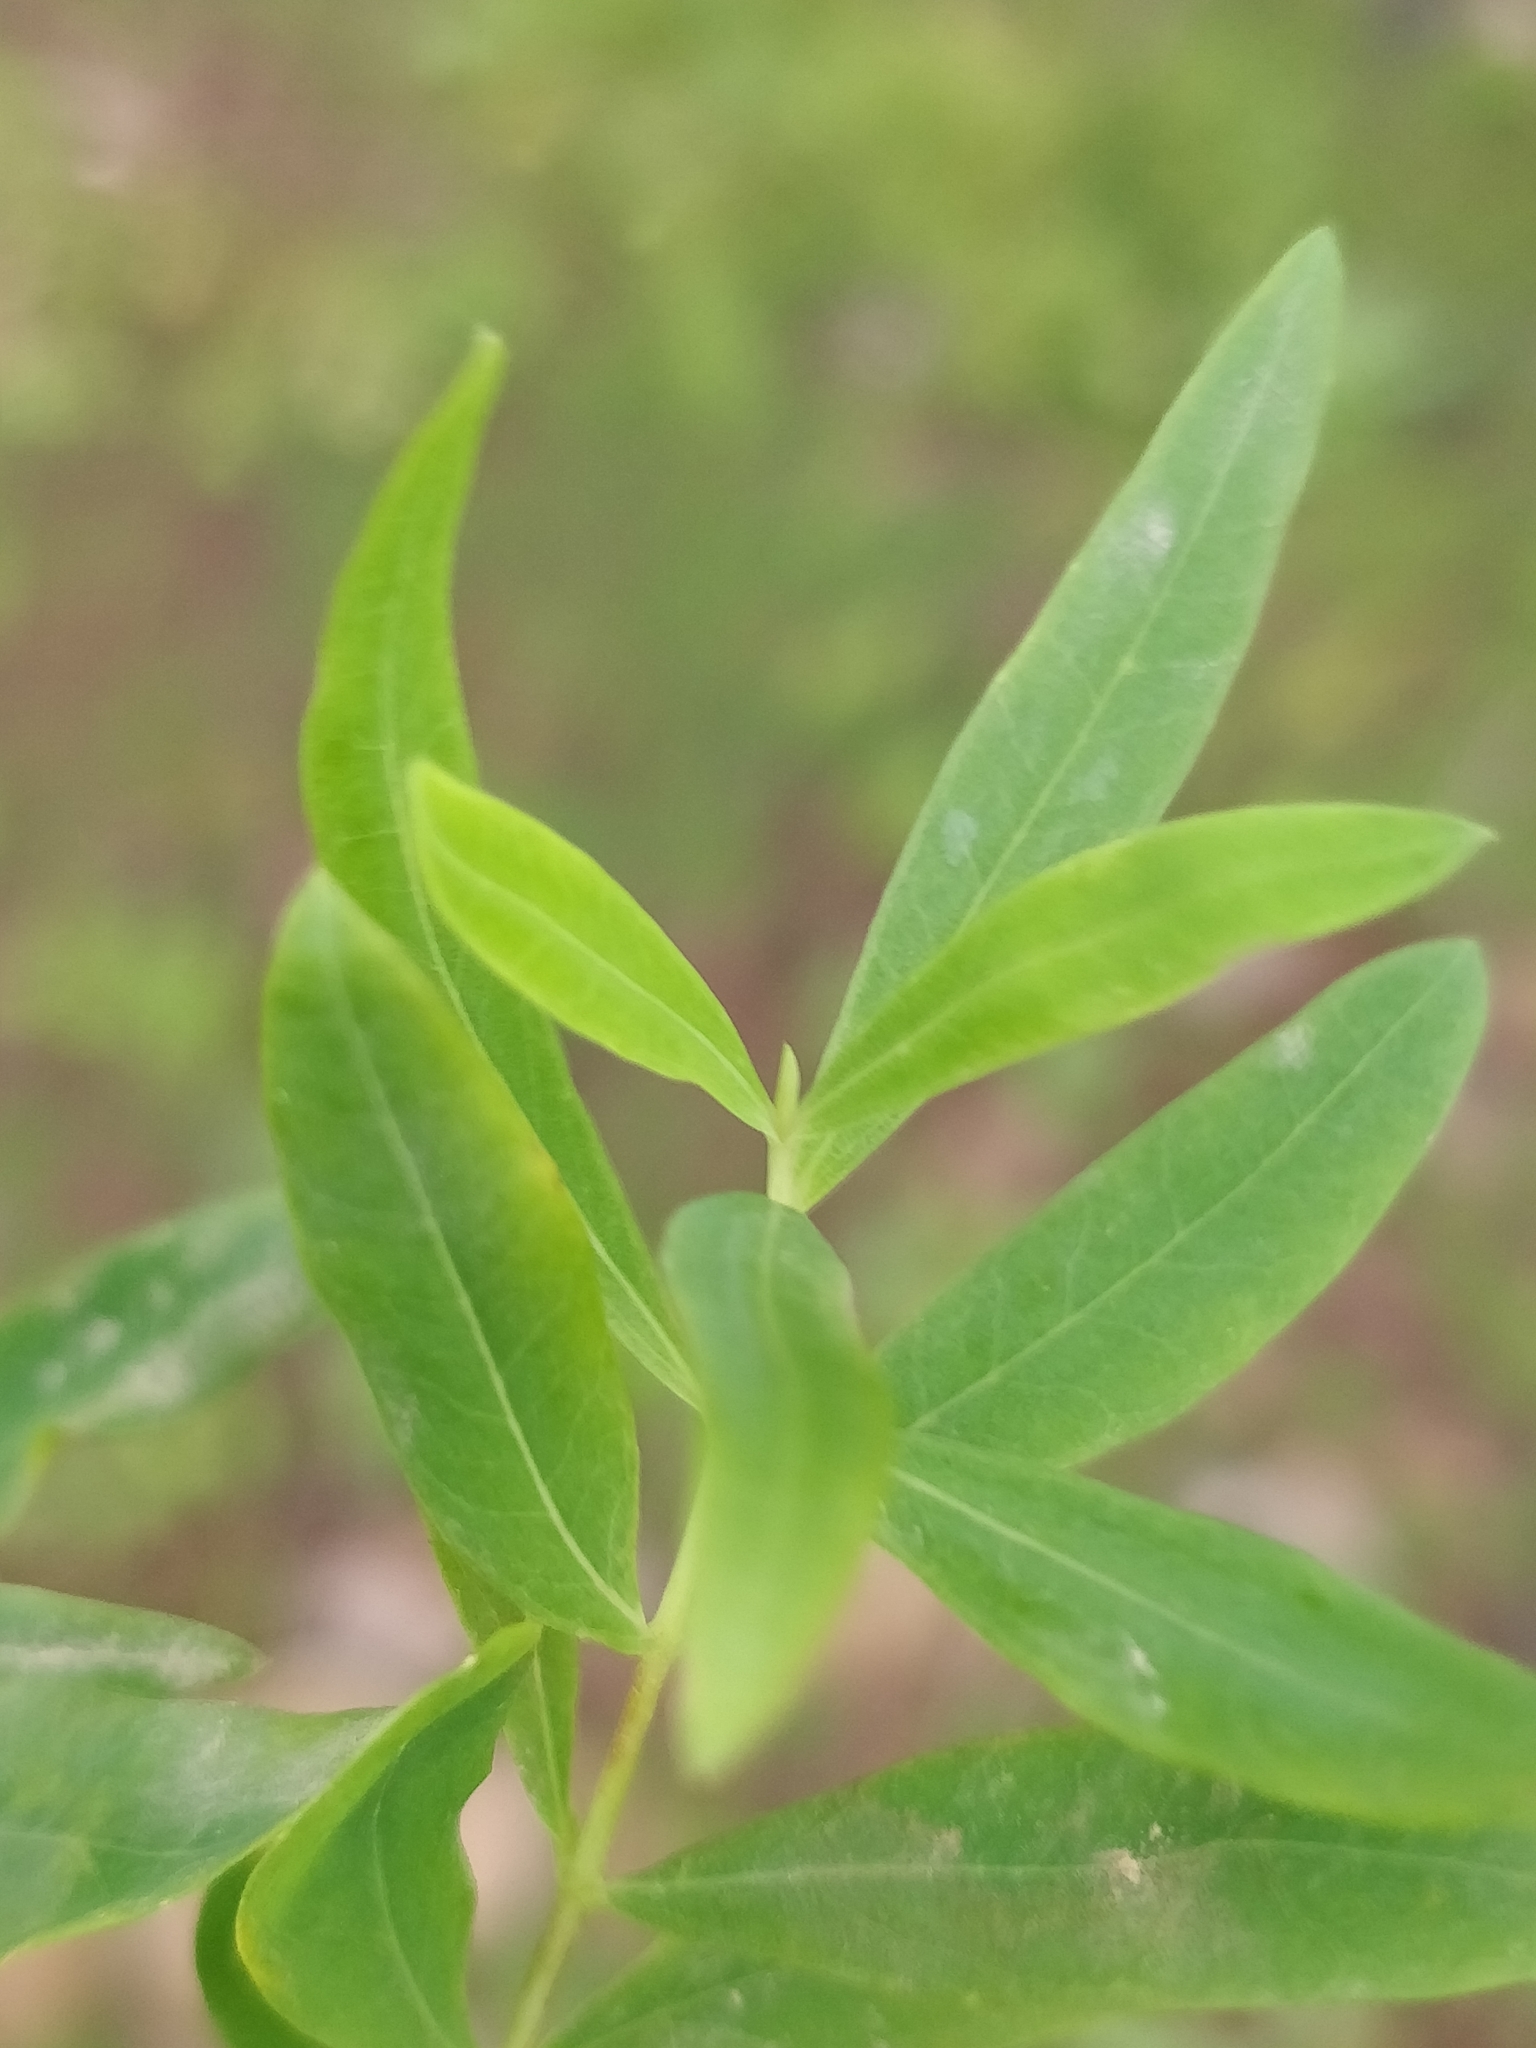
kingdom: Plantae
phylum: Tracheophyta
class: Magnoliopsida
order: Malpighiales
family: Hypericaceae
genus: Hypericum
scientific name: Hypericum canariense
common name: Canary island st. johnswort
